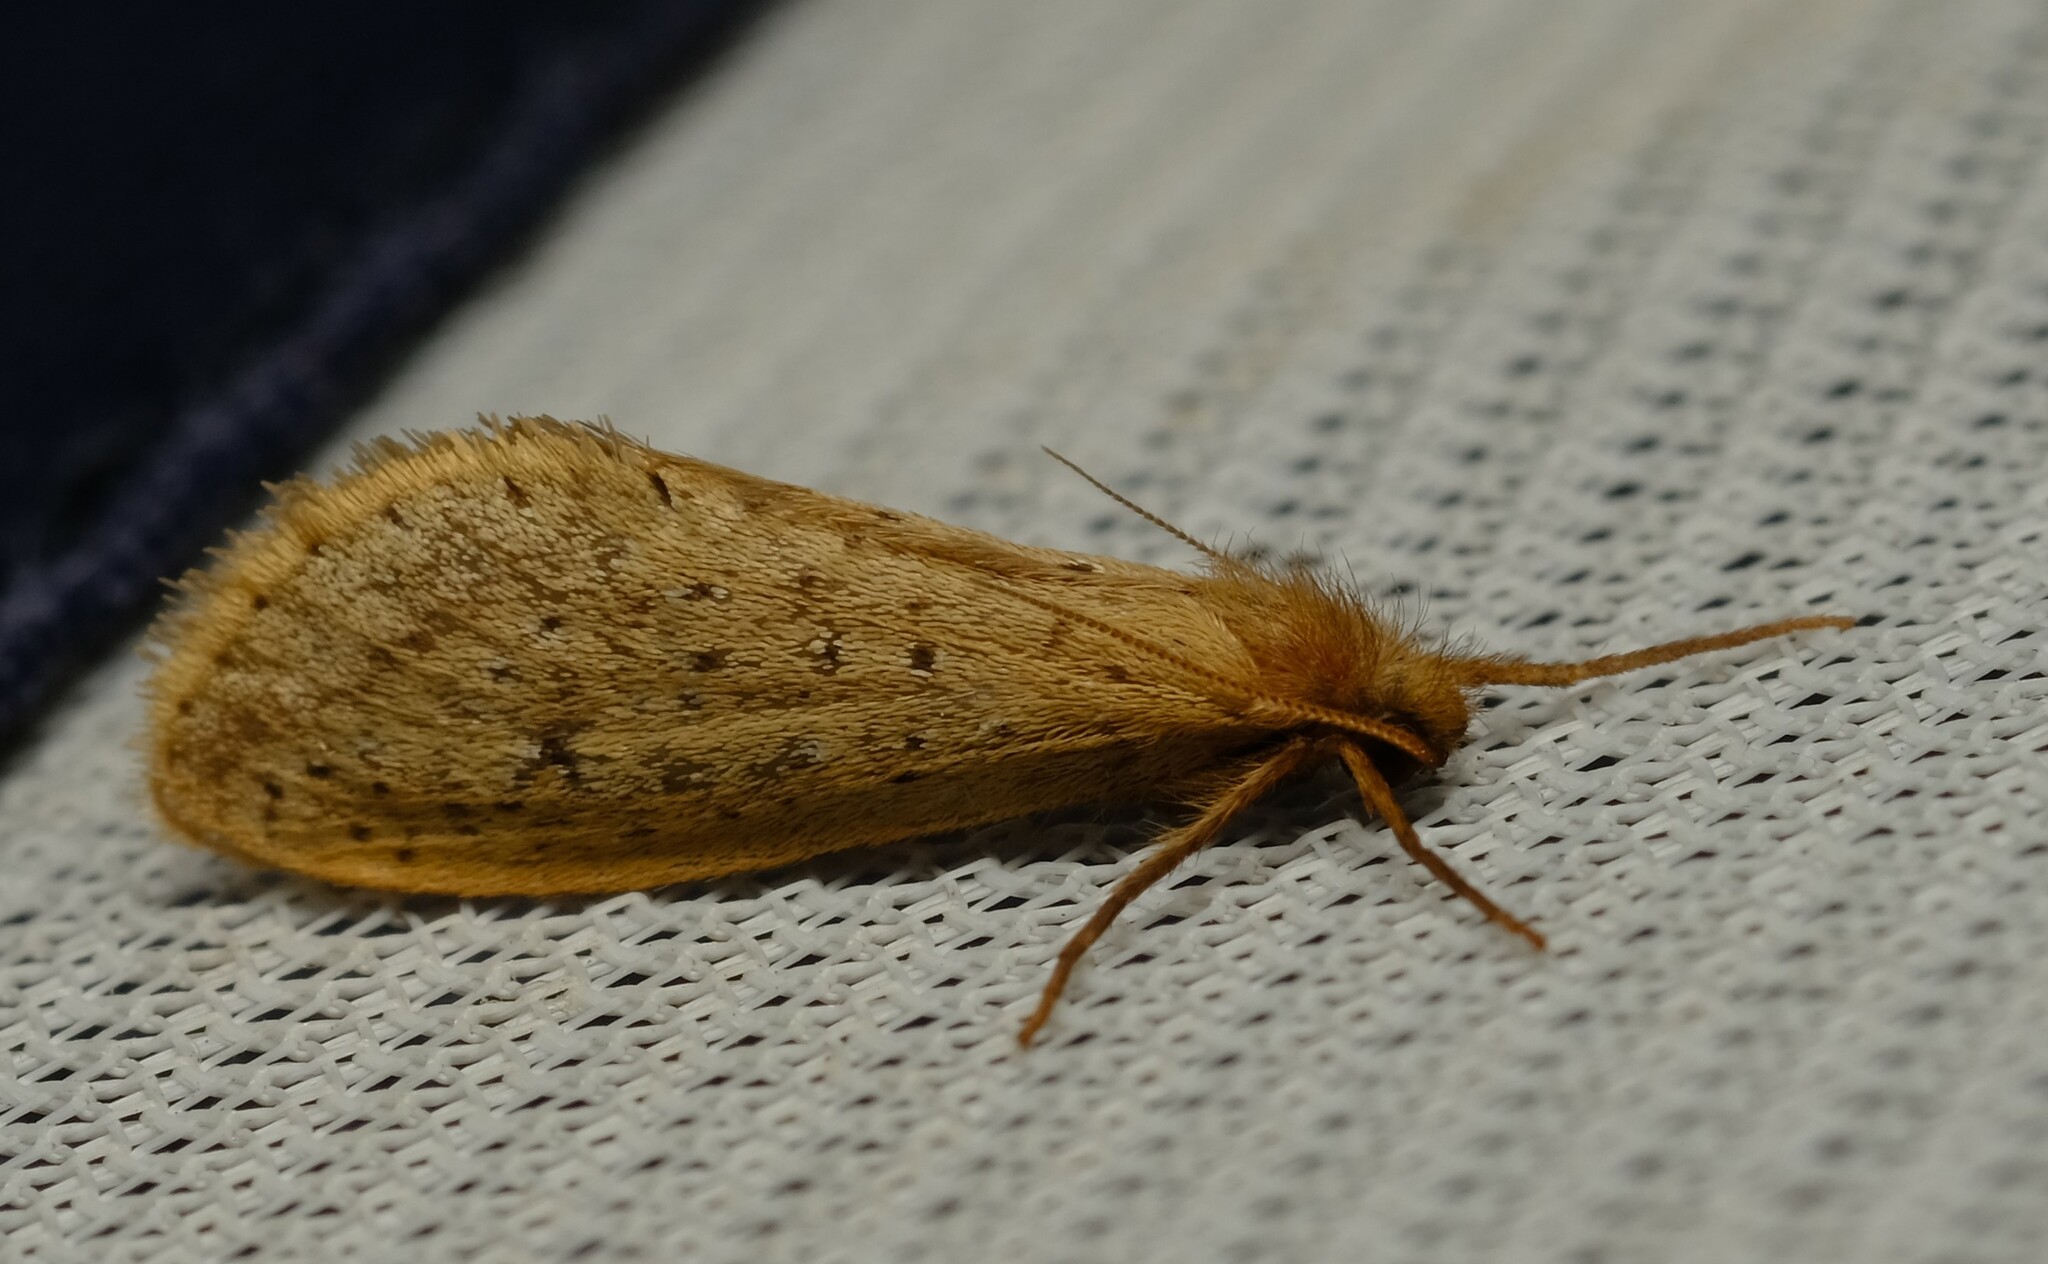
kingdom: Animalia
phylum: Arthropoda
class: Insecta
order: Lepidoptera
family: Hepialidae
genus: Fraus
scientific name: Fraus nanus
